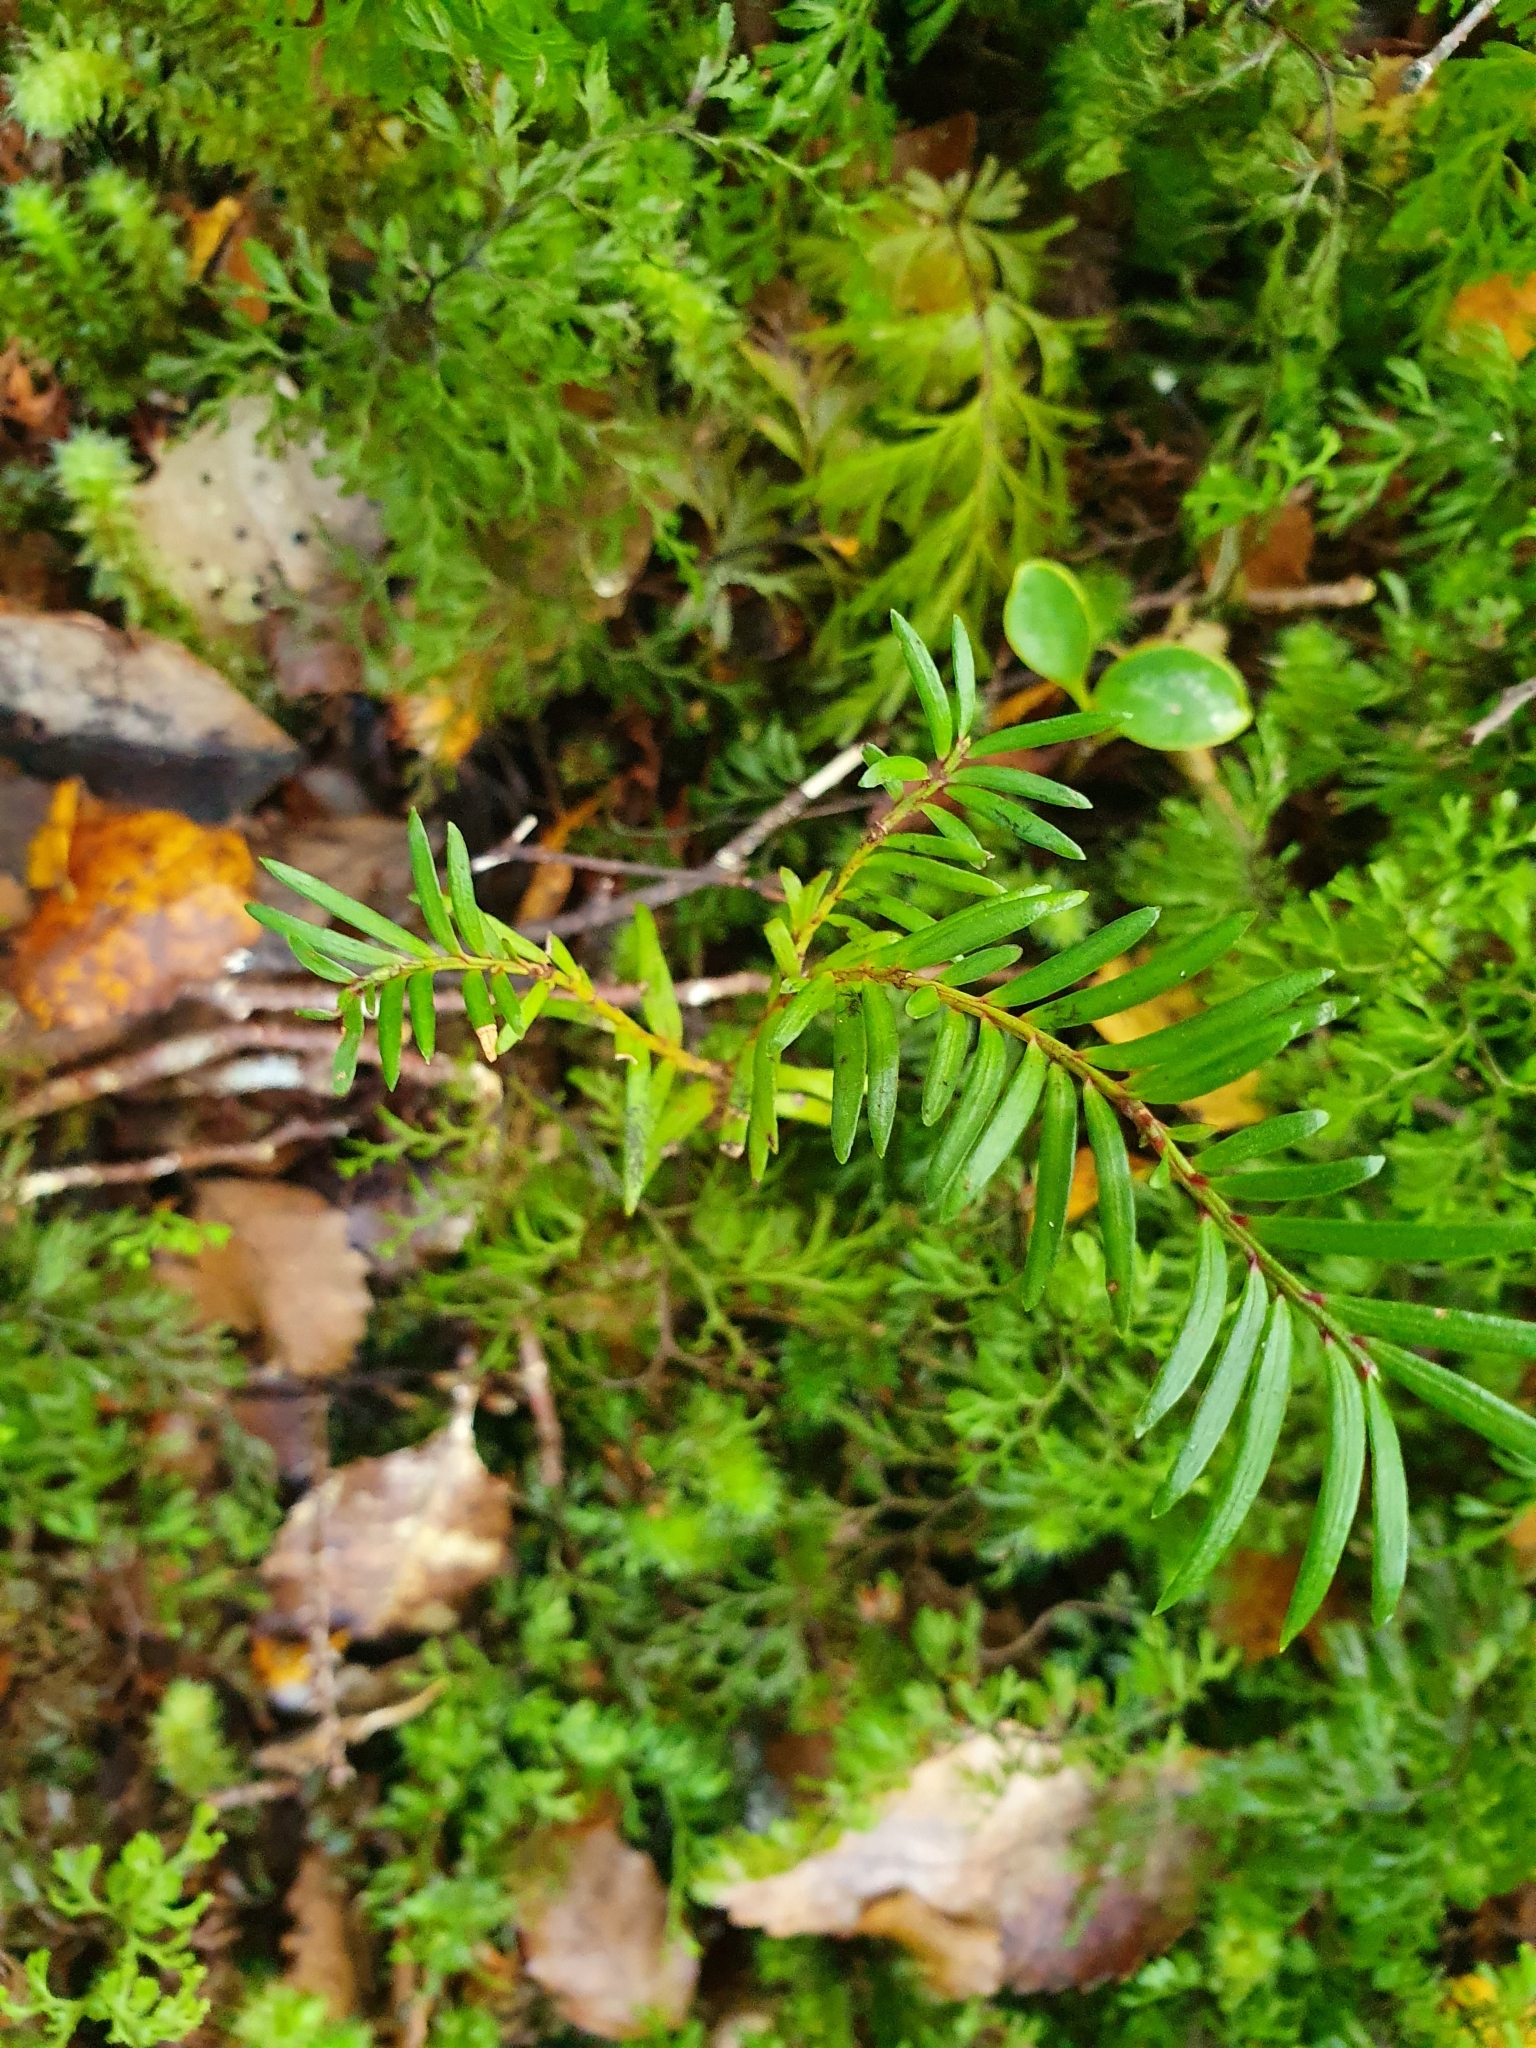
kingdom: Plantae
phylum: Tracheophyta
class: Pinopsida
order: Pinales
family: Podocarpaceae
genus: Prumnopitys
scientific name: Prumnopitys ferruginea
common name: Brown pine
